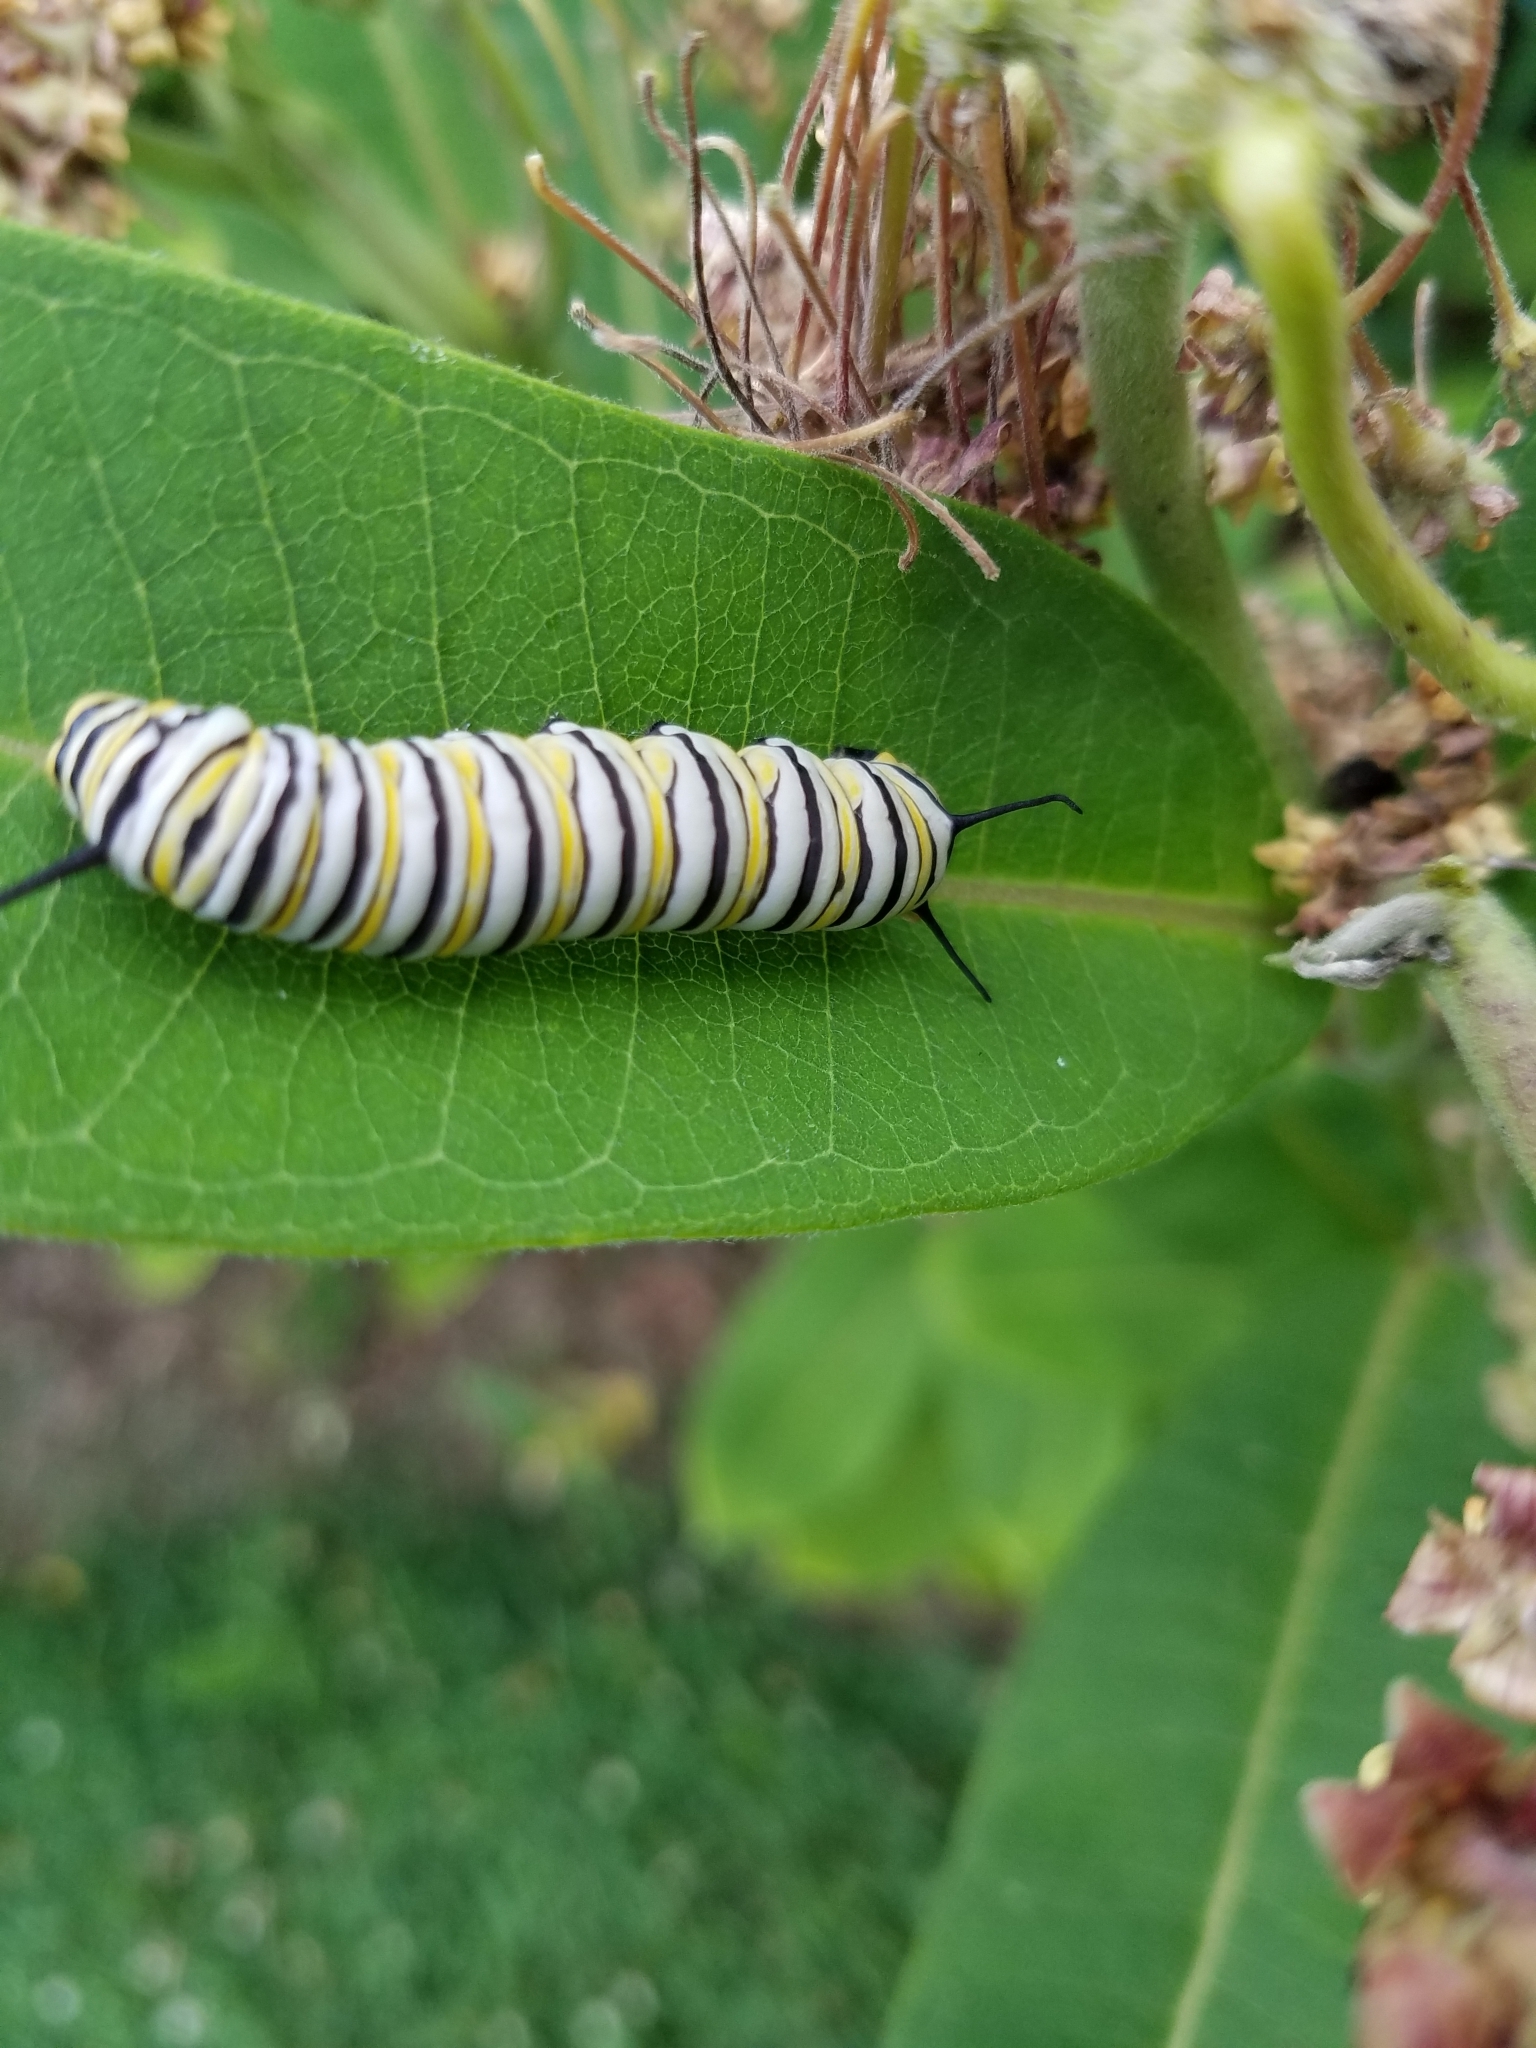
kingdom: Animalia
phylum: Arthropoda
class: Insecta
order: Lepidoptera
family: Nymphalidae
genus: Danaus
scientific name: Danaus plexippus
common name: Monarch
